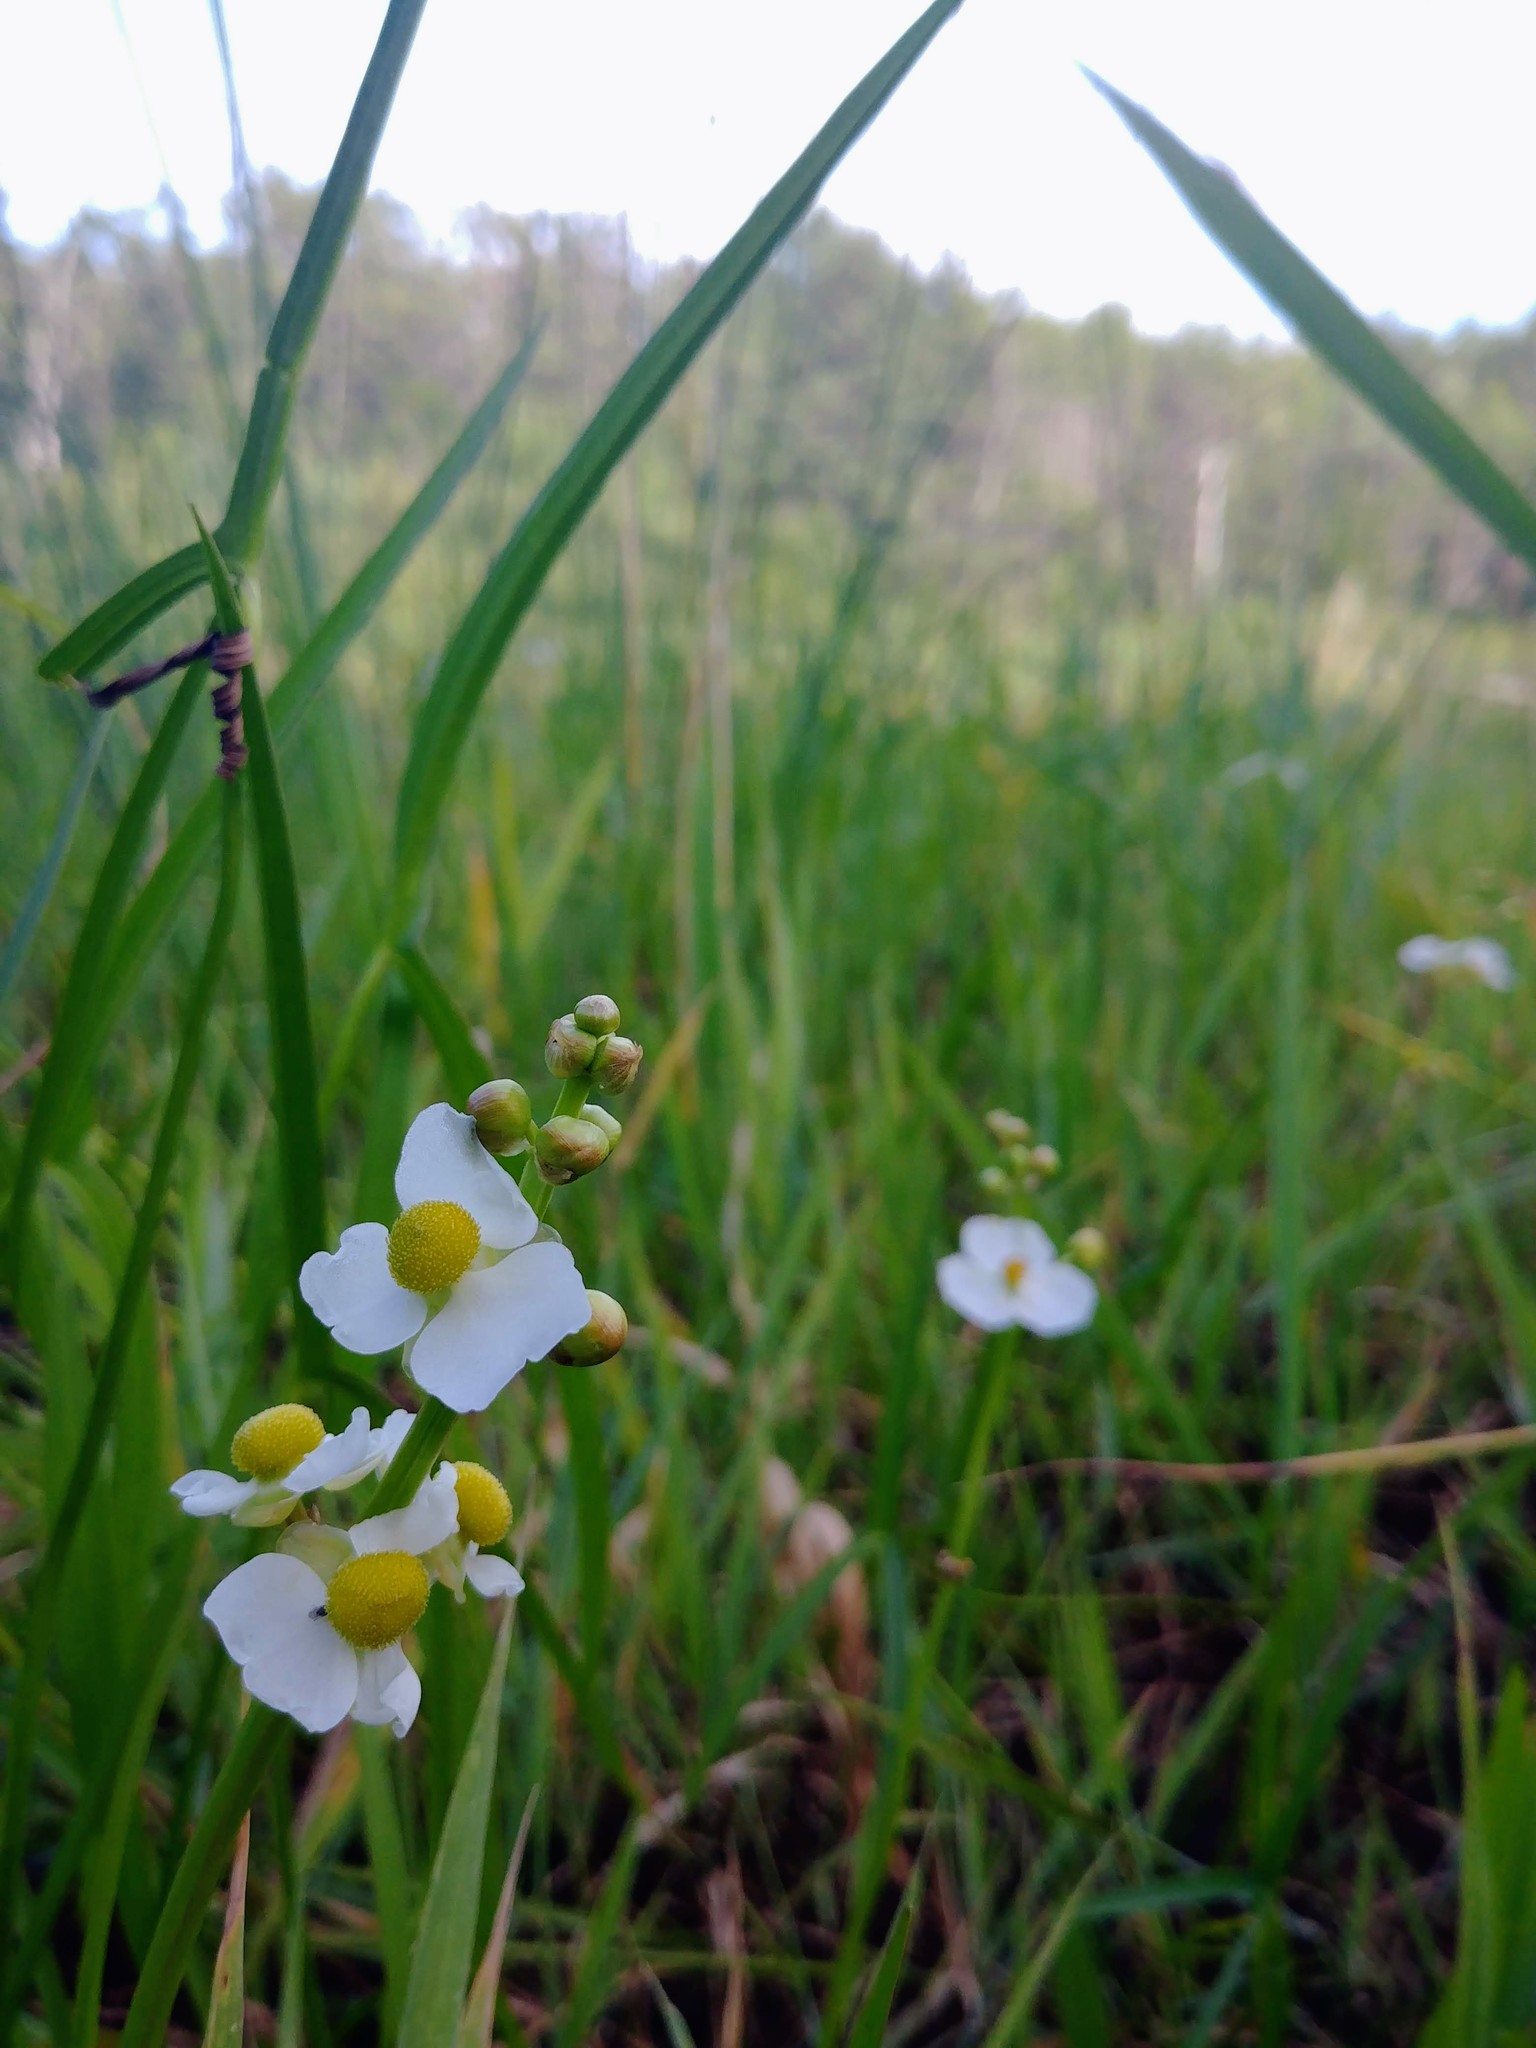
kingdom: Plantae
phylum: Tracheophyta
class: Liliopsida
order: Alismatales
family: Alismataceae
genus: Sagittaria
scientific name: Sagittaria latifolia
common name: Duck-potato
